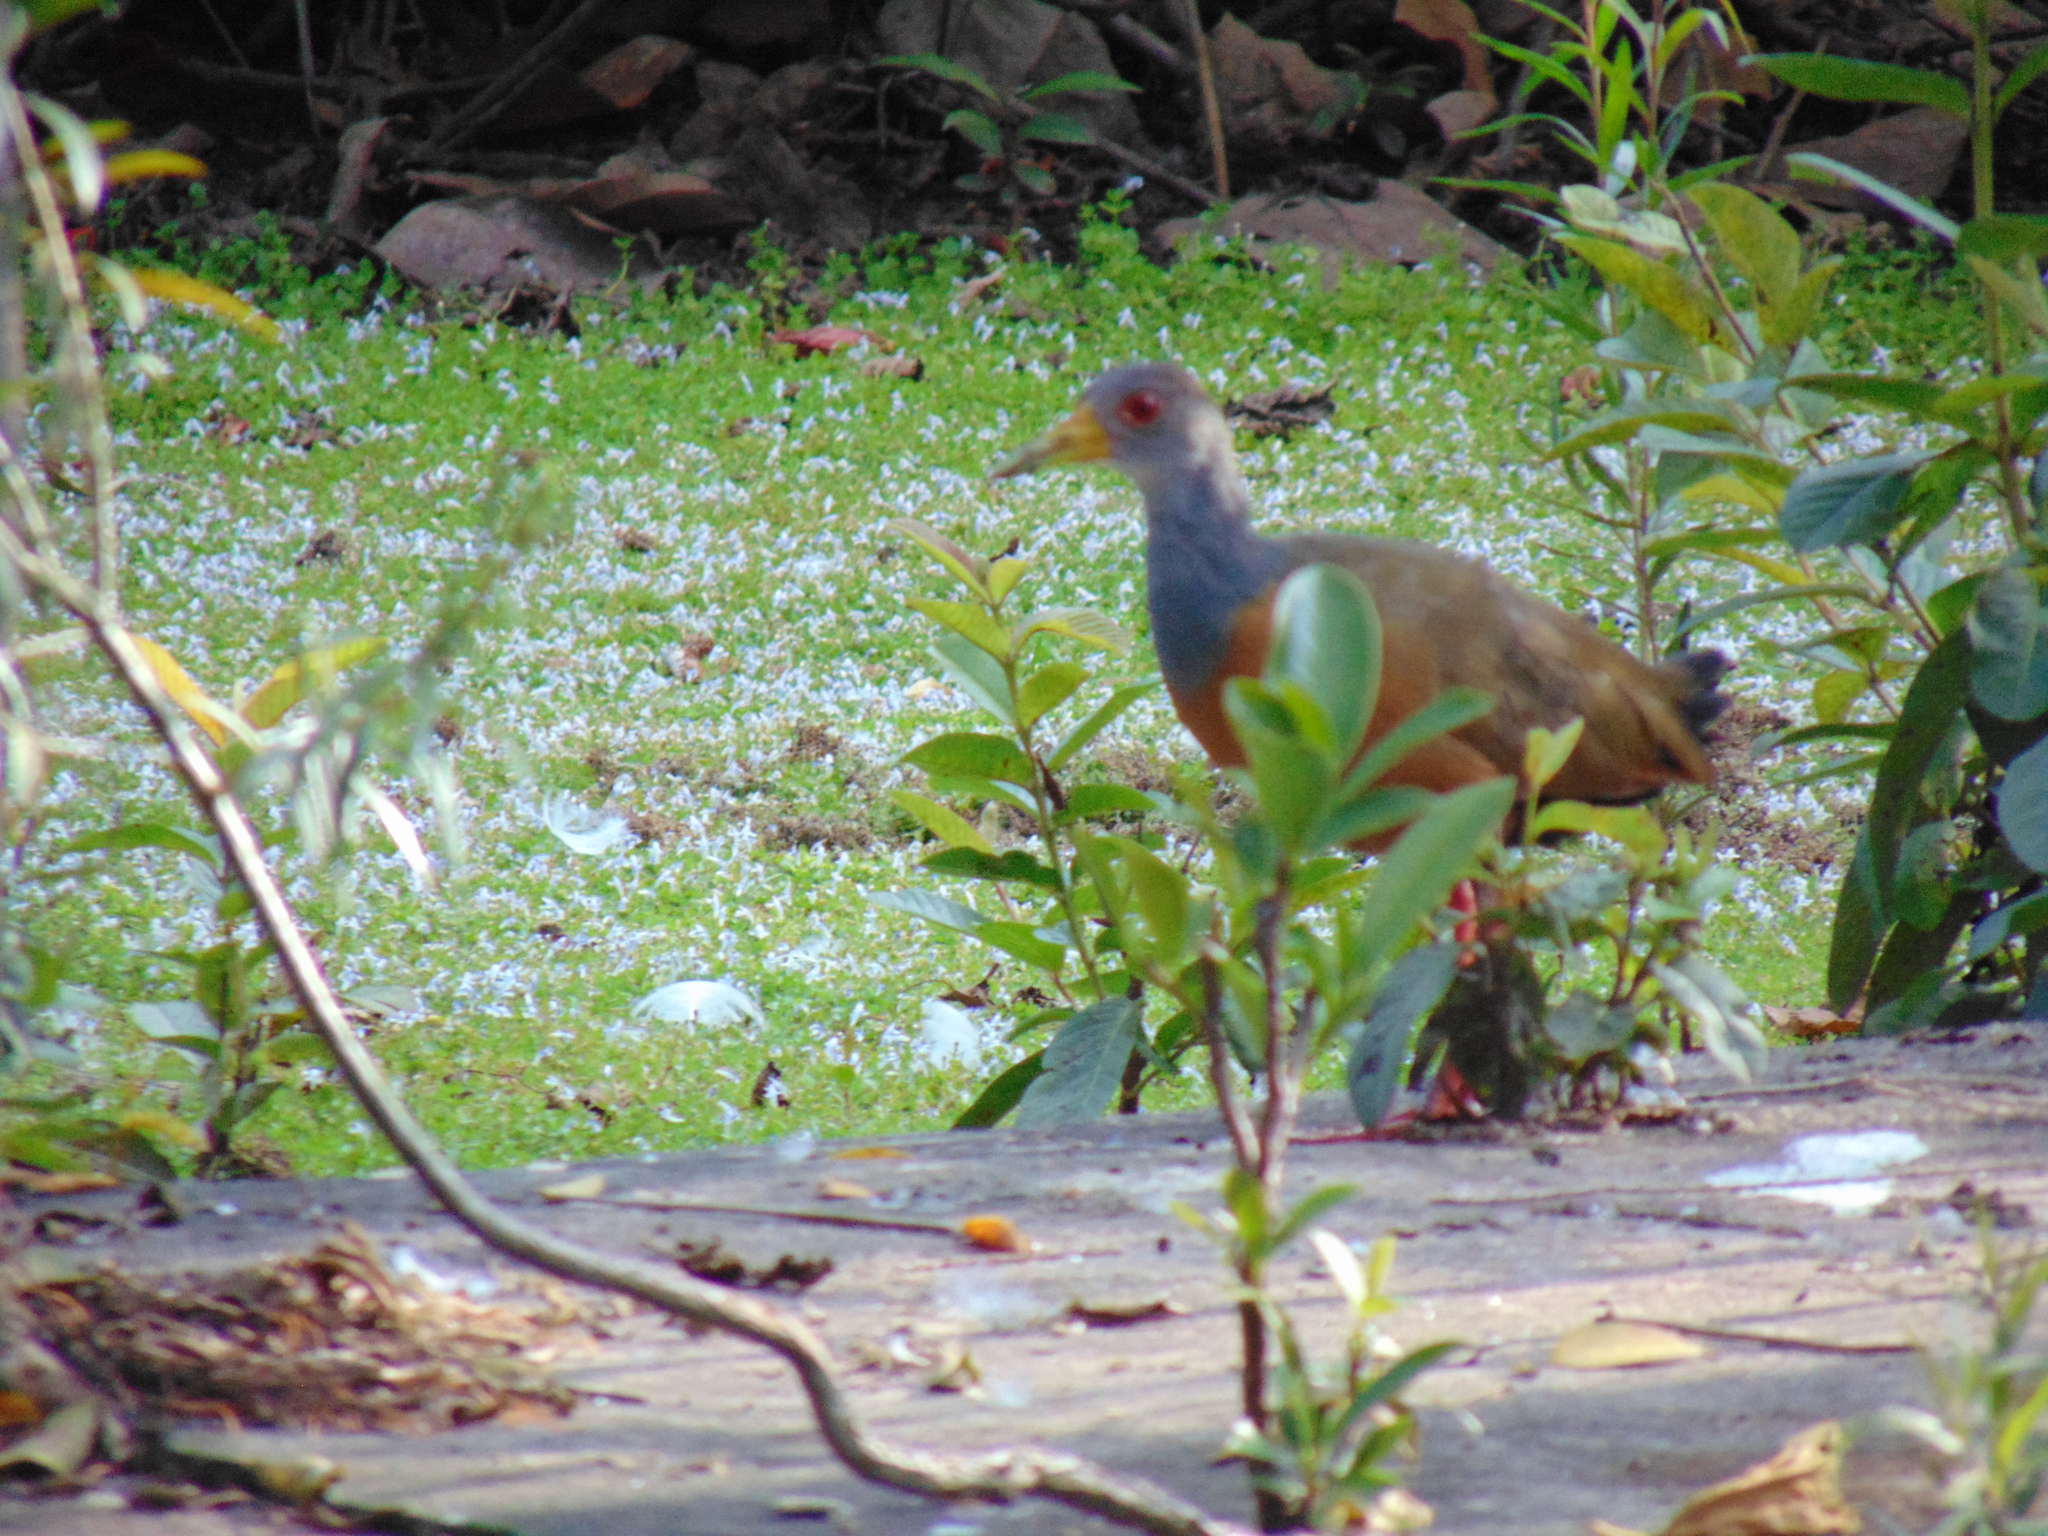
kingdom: Animalia
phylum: Chordata
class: Aves
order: Gruiformes
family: Rallidae
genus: Aramides
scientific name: Aramides cajanea
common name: Gray-necked wood-rail
